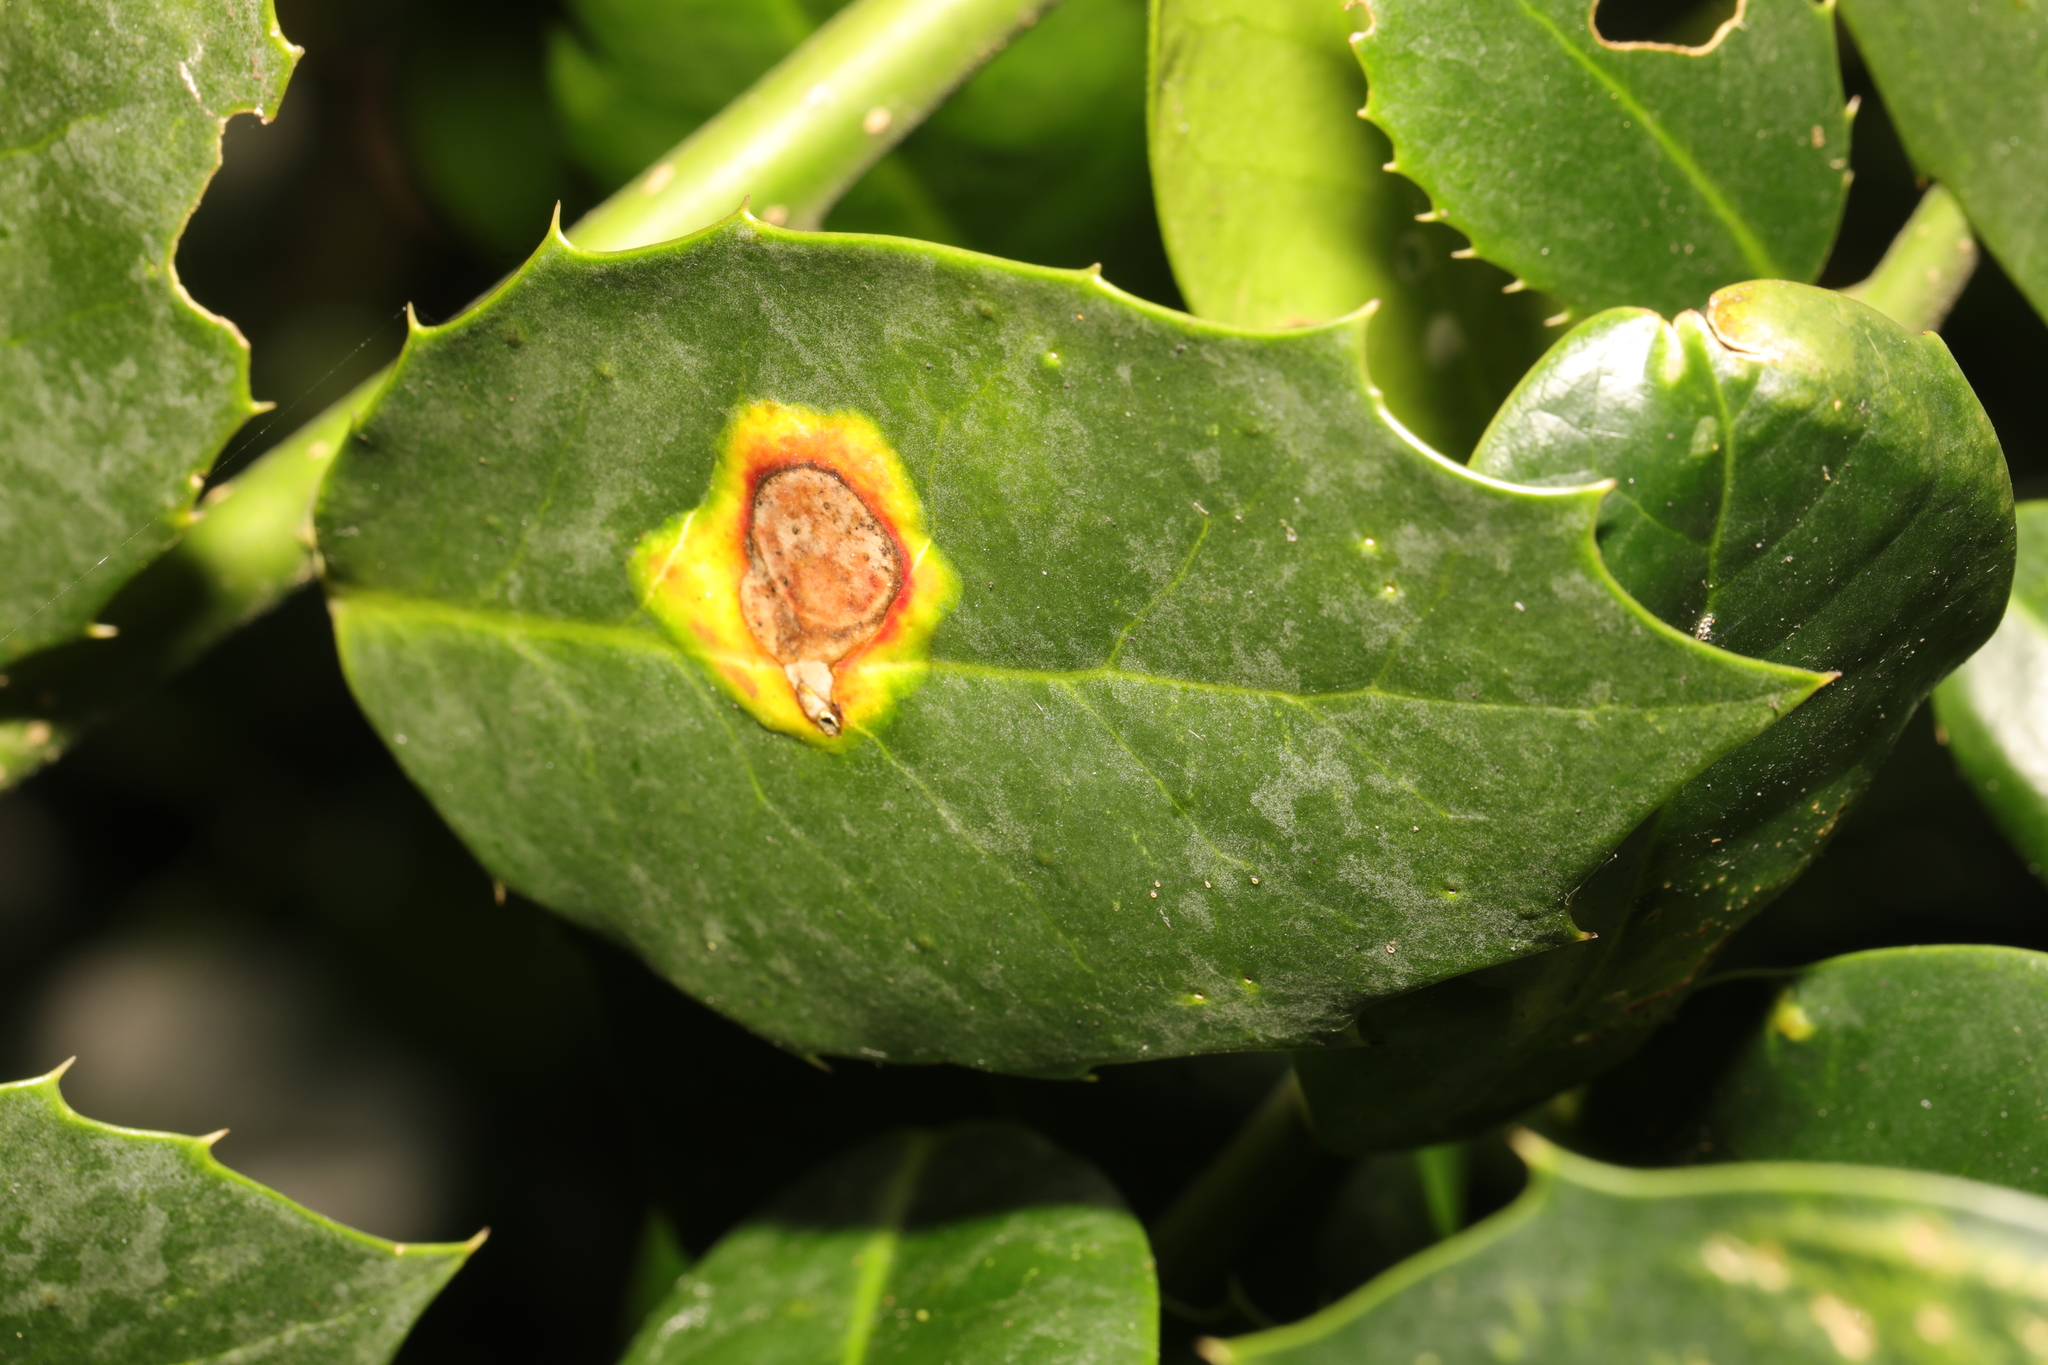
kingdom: Animalia
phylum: Arthropoda
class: Insecta
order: Diptera
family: Agromyzidae
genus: Phytomyza
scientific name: Phytomyza ilicis
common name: Holly leafminer
